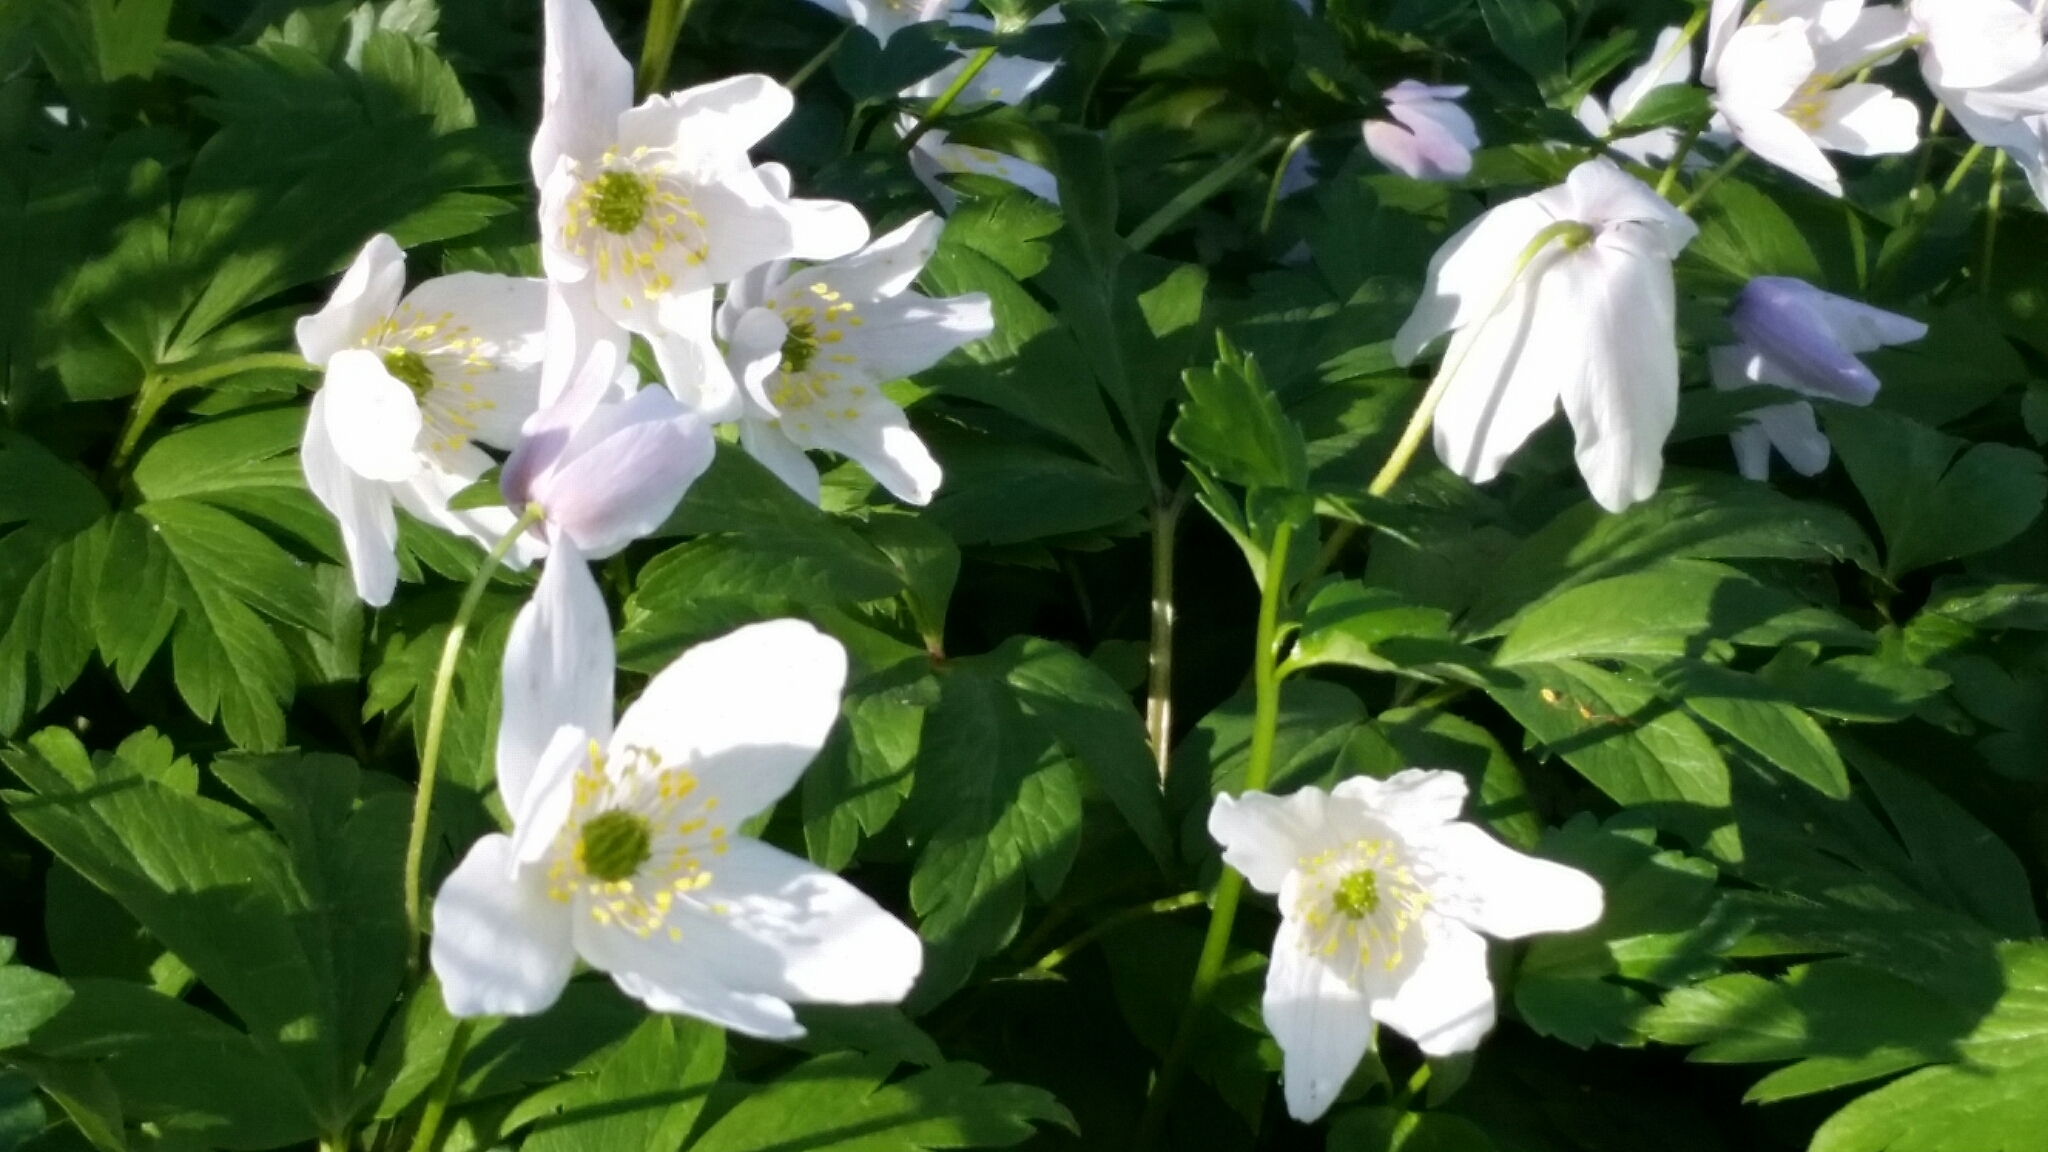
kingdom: Plantae
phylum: Tracheophyta
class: Magnoliopsida
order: Ranunculales
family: Ranunculaceae
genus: Anemone
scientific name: Anemone nemorosa
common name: Wood anemone
